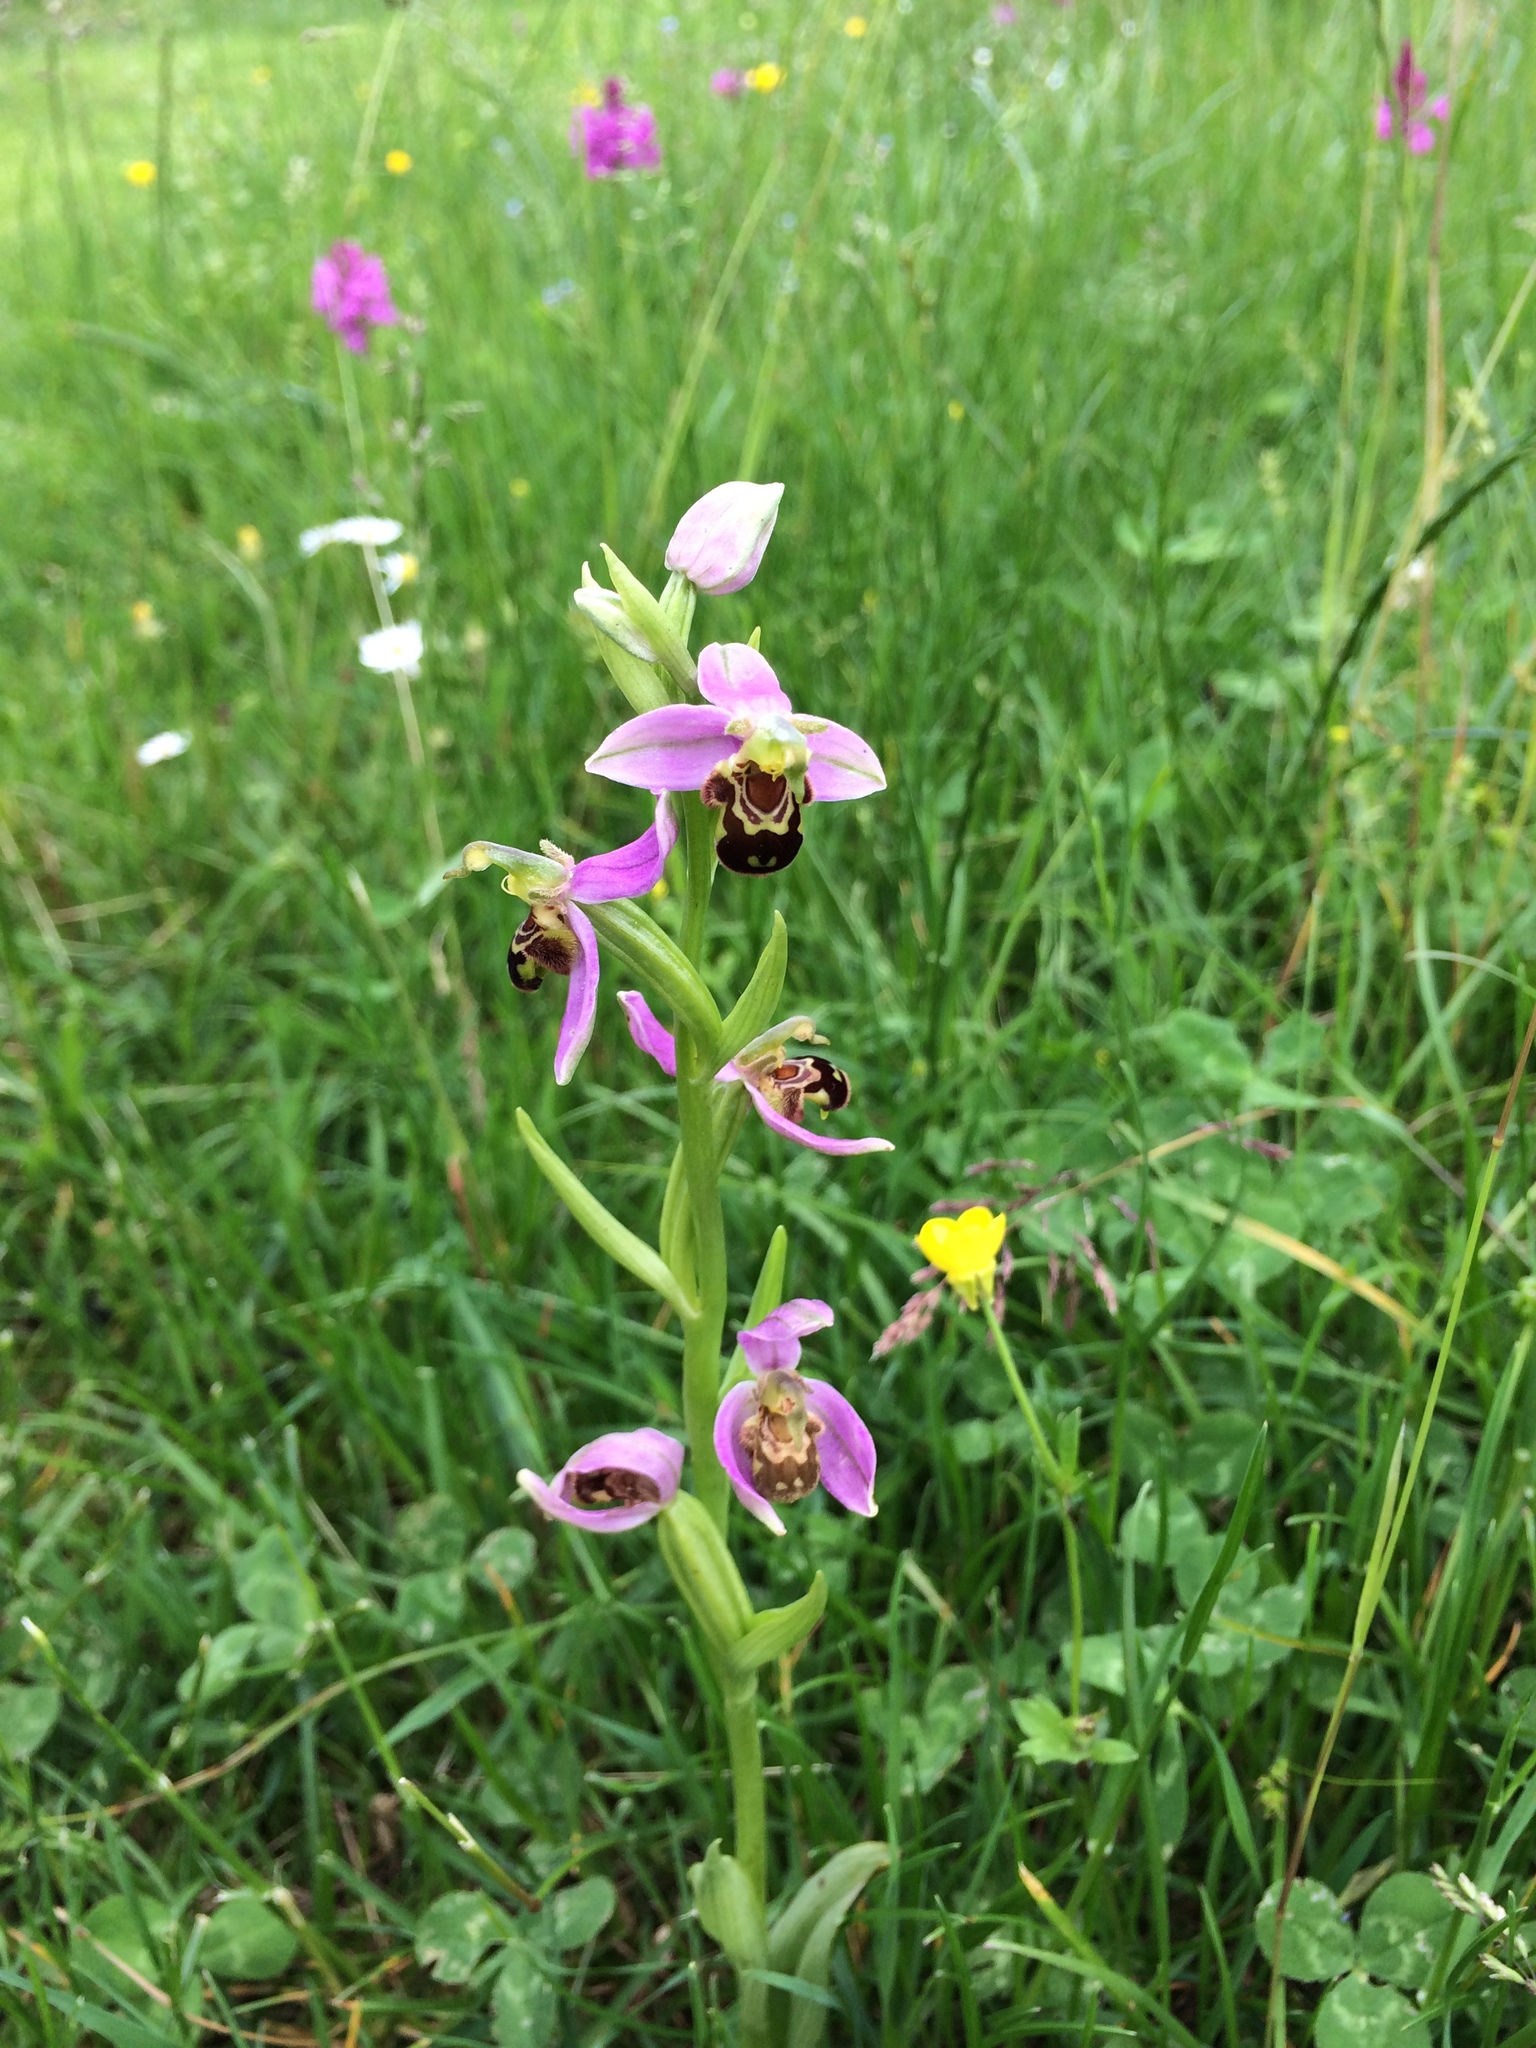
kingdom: Plantae
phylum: Tracheophyta
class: Liliopsida
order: Asparagales
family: Orchidaceae
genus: Ophrys
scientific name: Ophrys apifera
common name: Bee orchid
